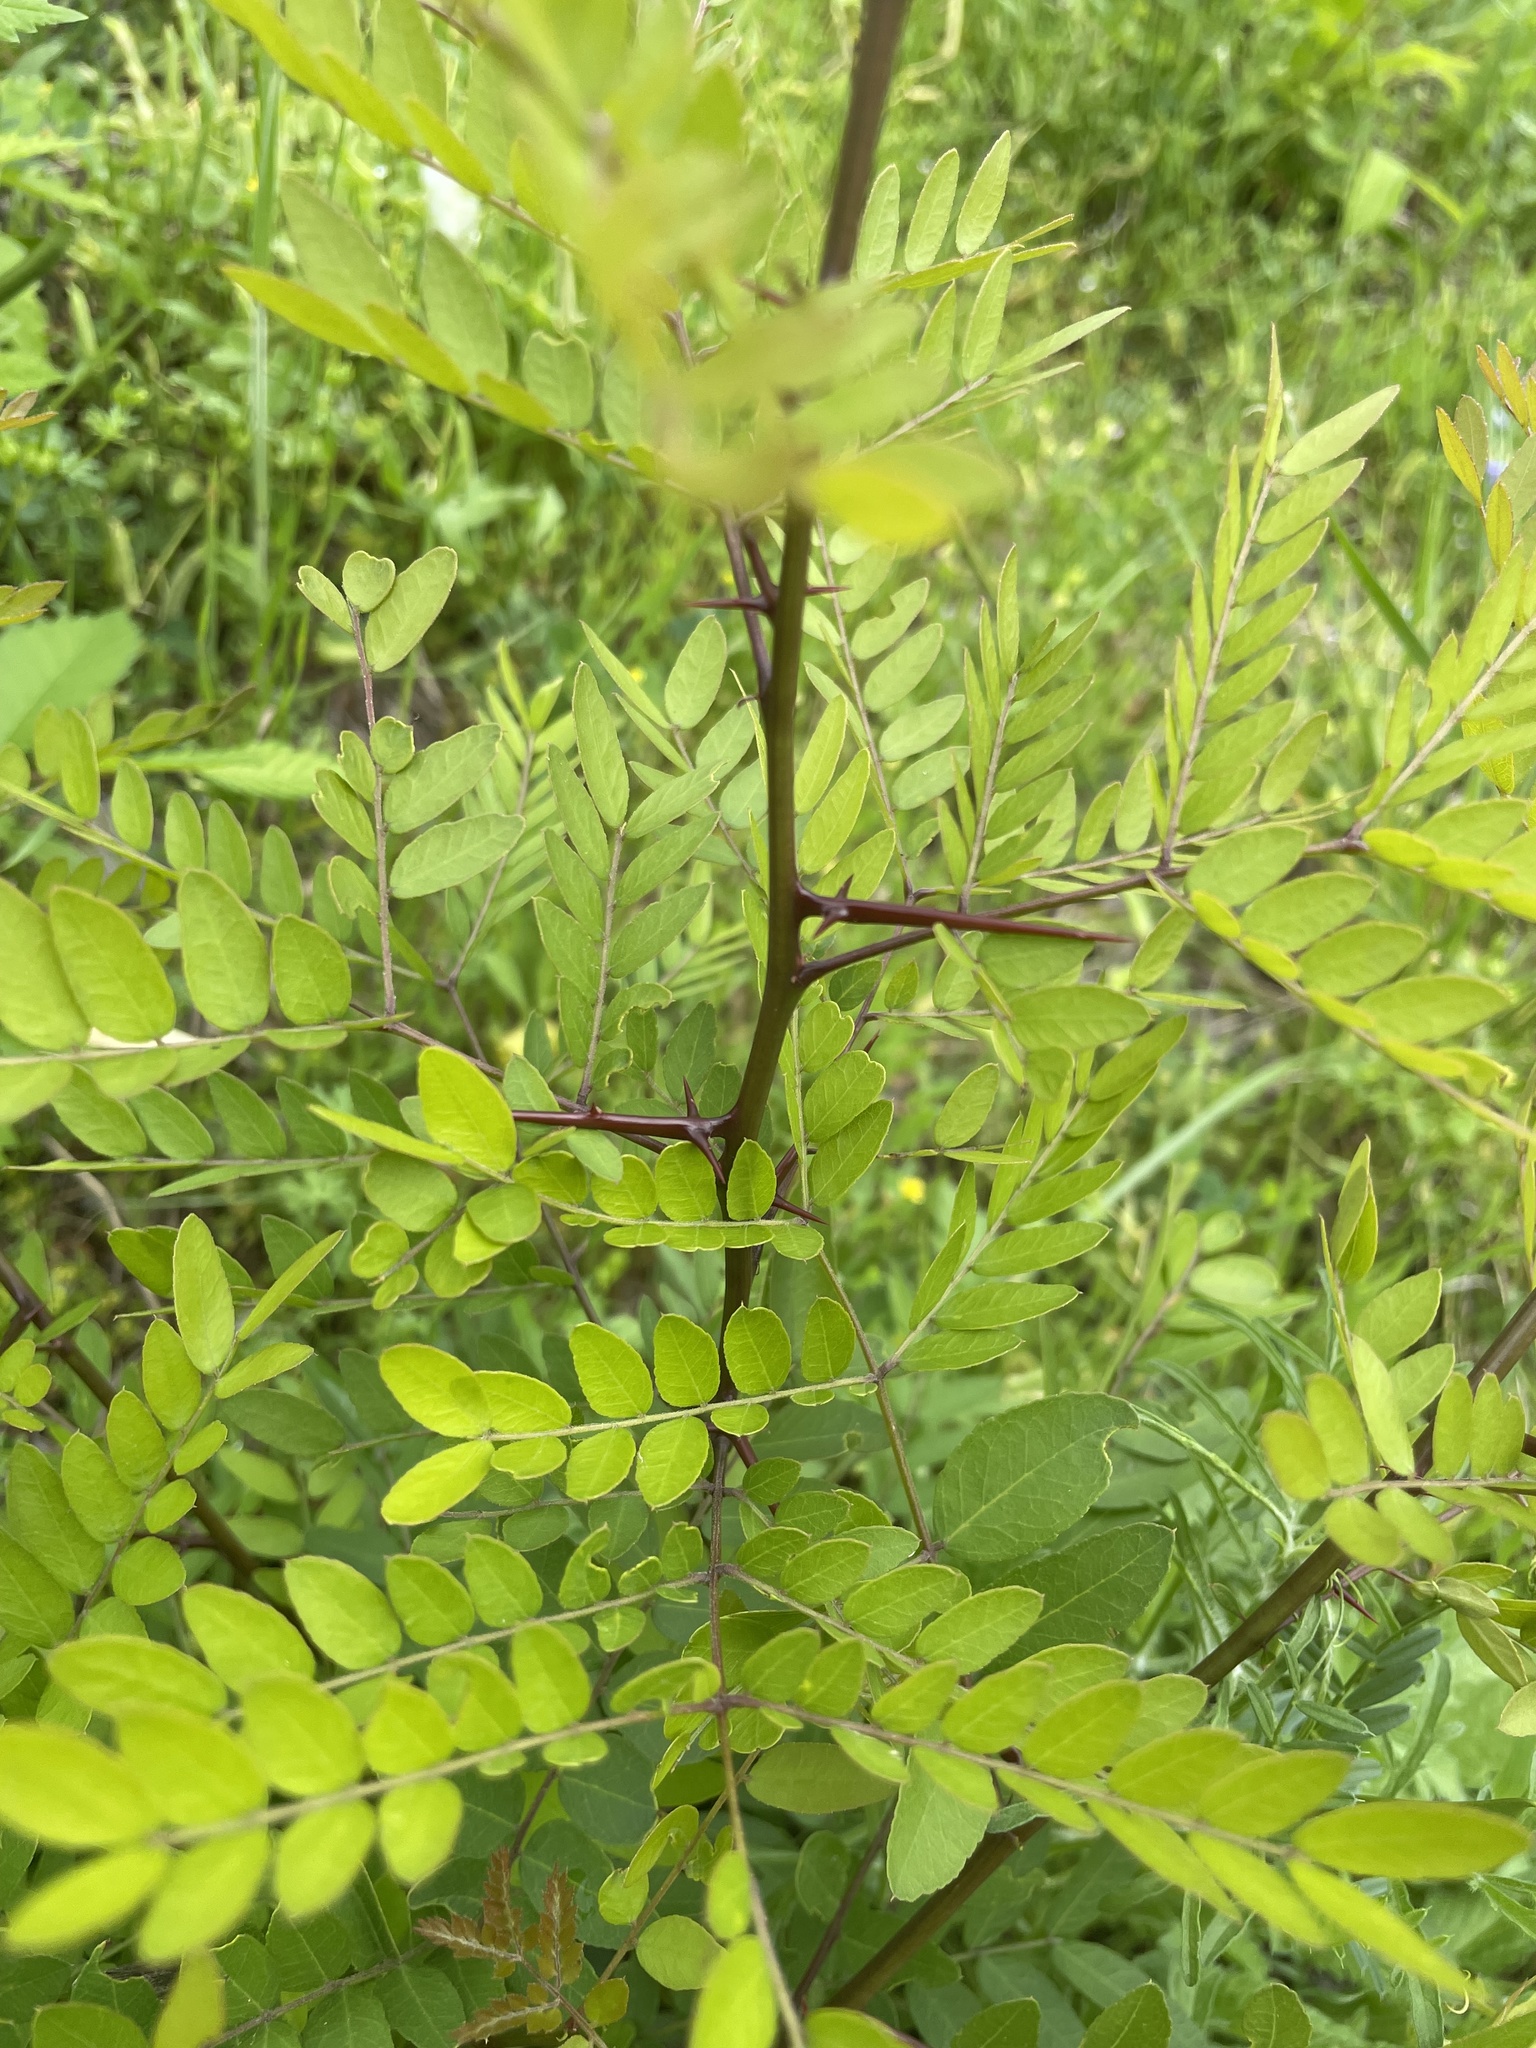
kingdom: Plantae
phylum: Tracheophyta
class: Magnoliopsida
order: Fabales
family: Fabaceae
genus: Gleditsia
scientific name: Gleditsia triacanthos
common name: Common honeylocust
